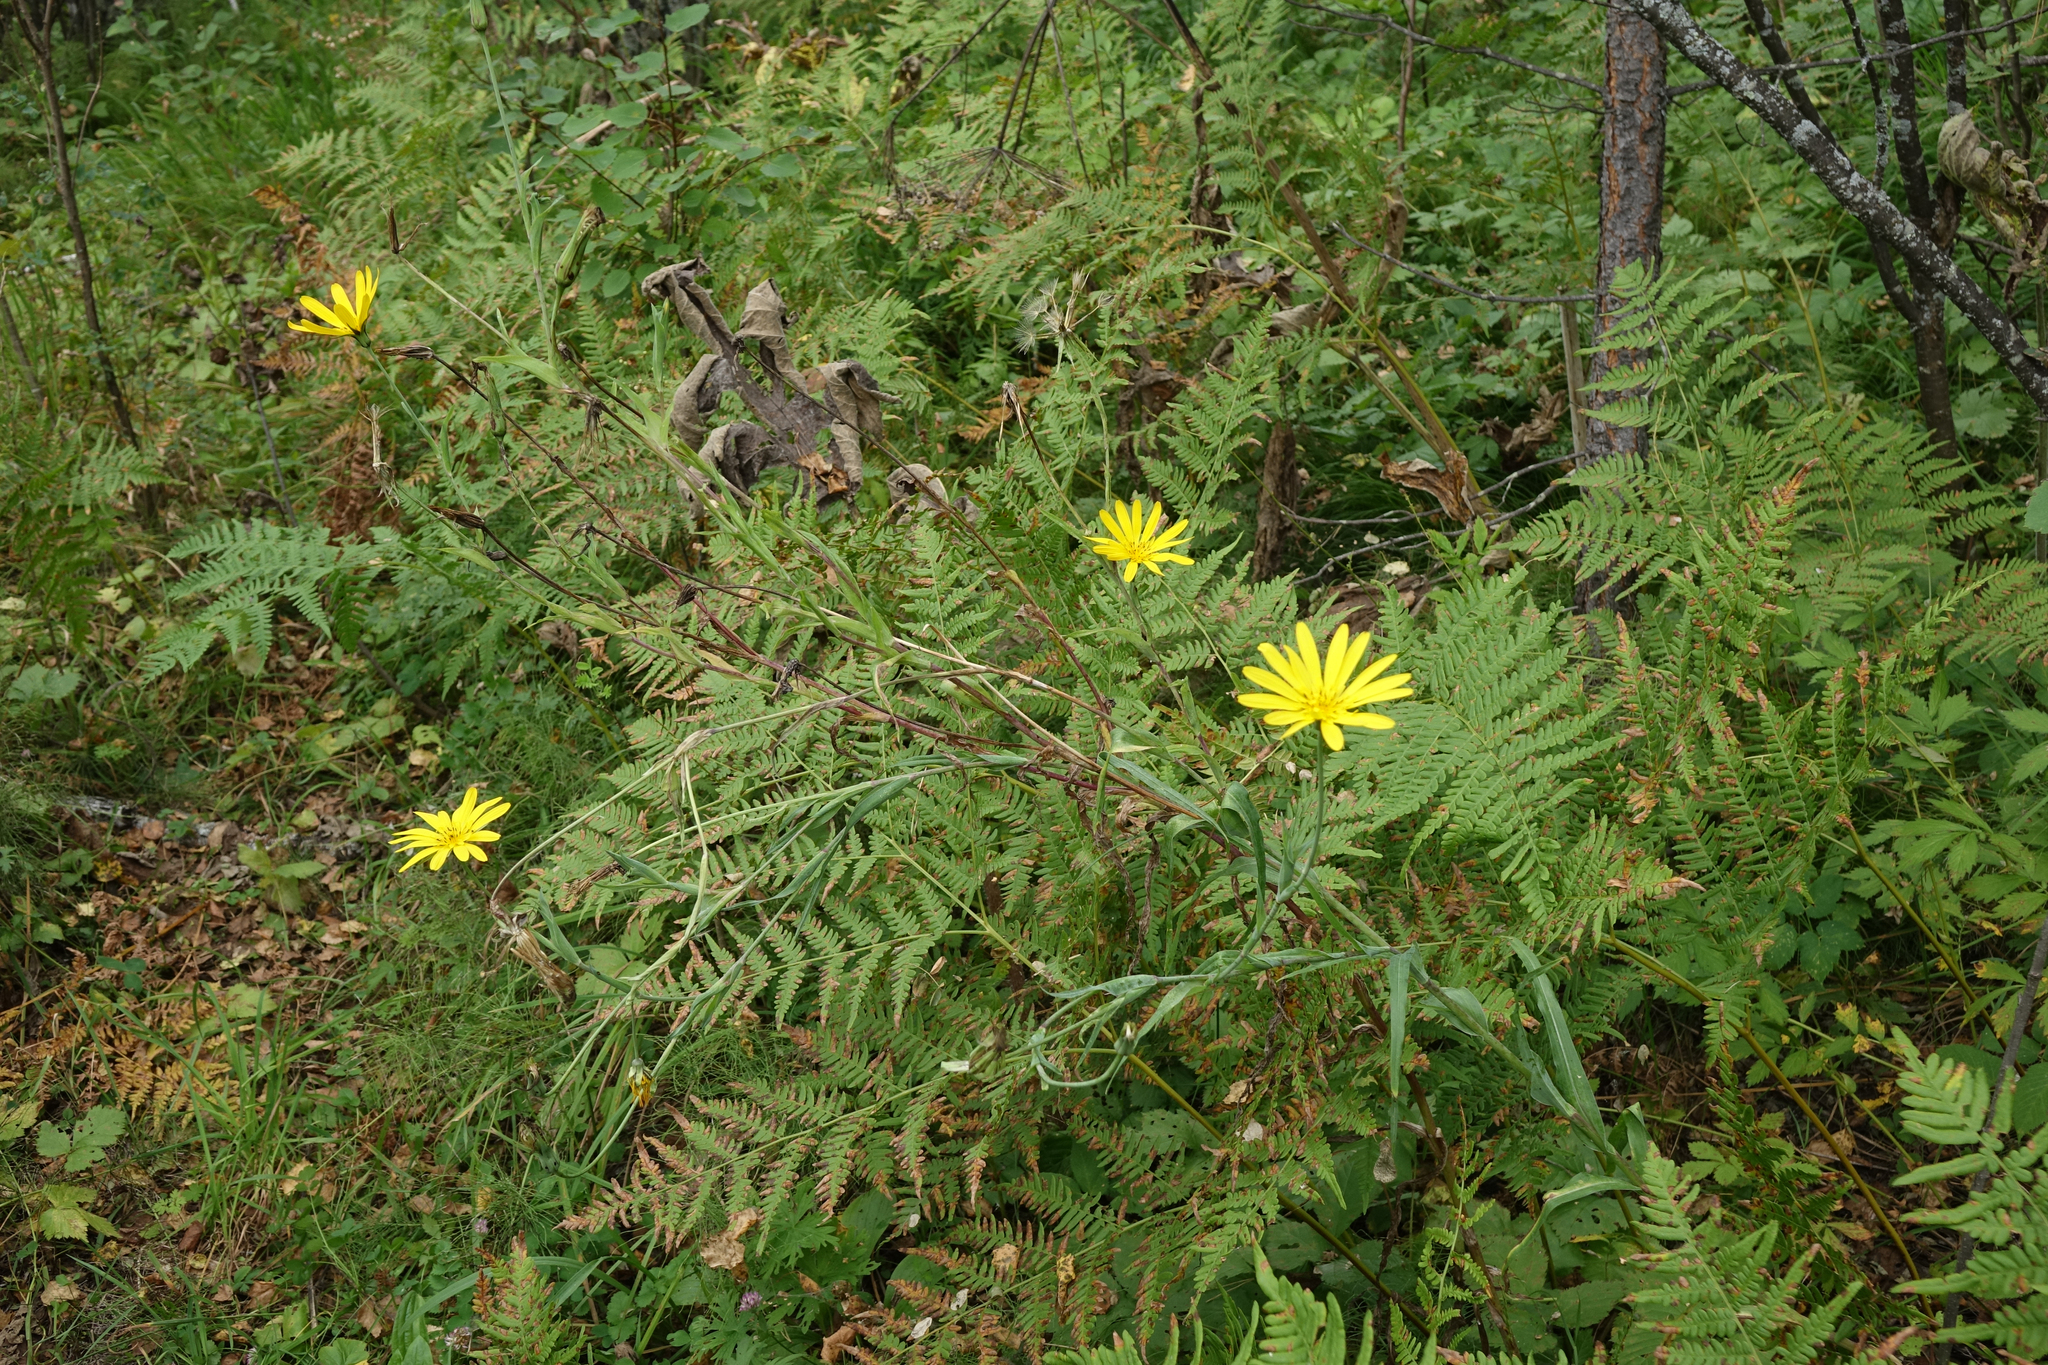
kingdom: Plantae
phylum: Tracheophyta
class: Magnoliopsida
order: Asterales
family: Asteraceae
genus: Tragopogon
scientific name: Tragopogon orientalis
